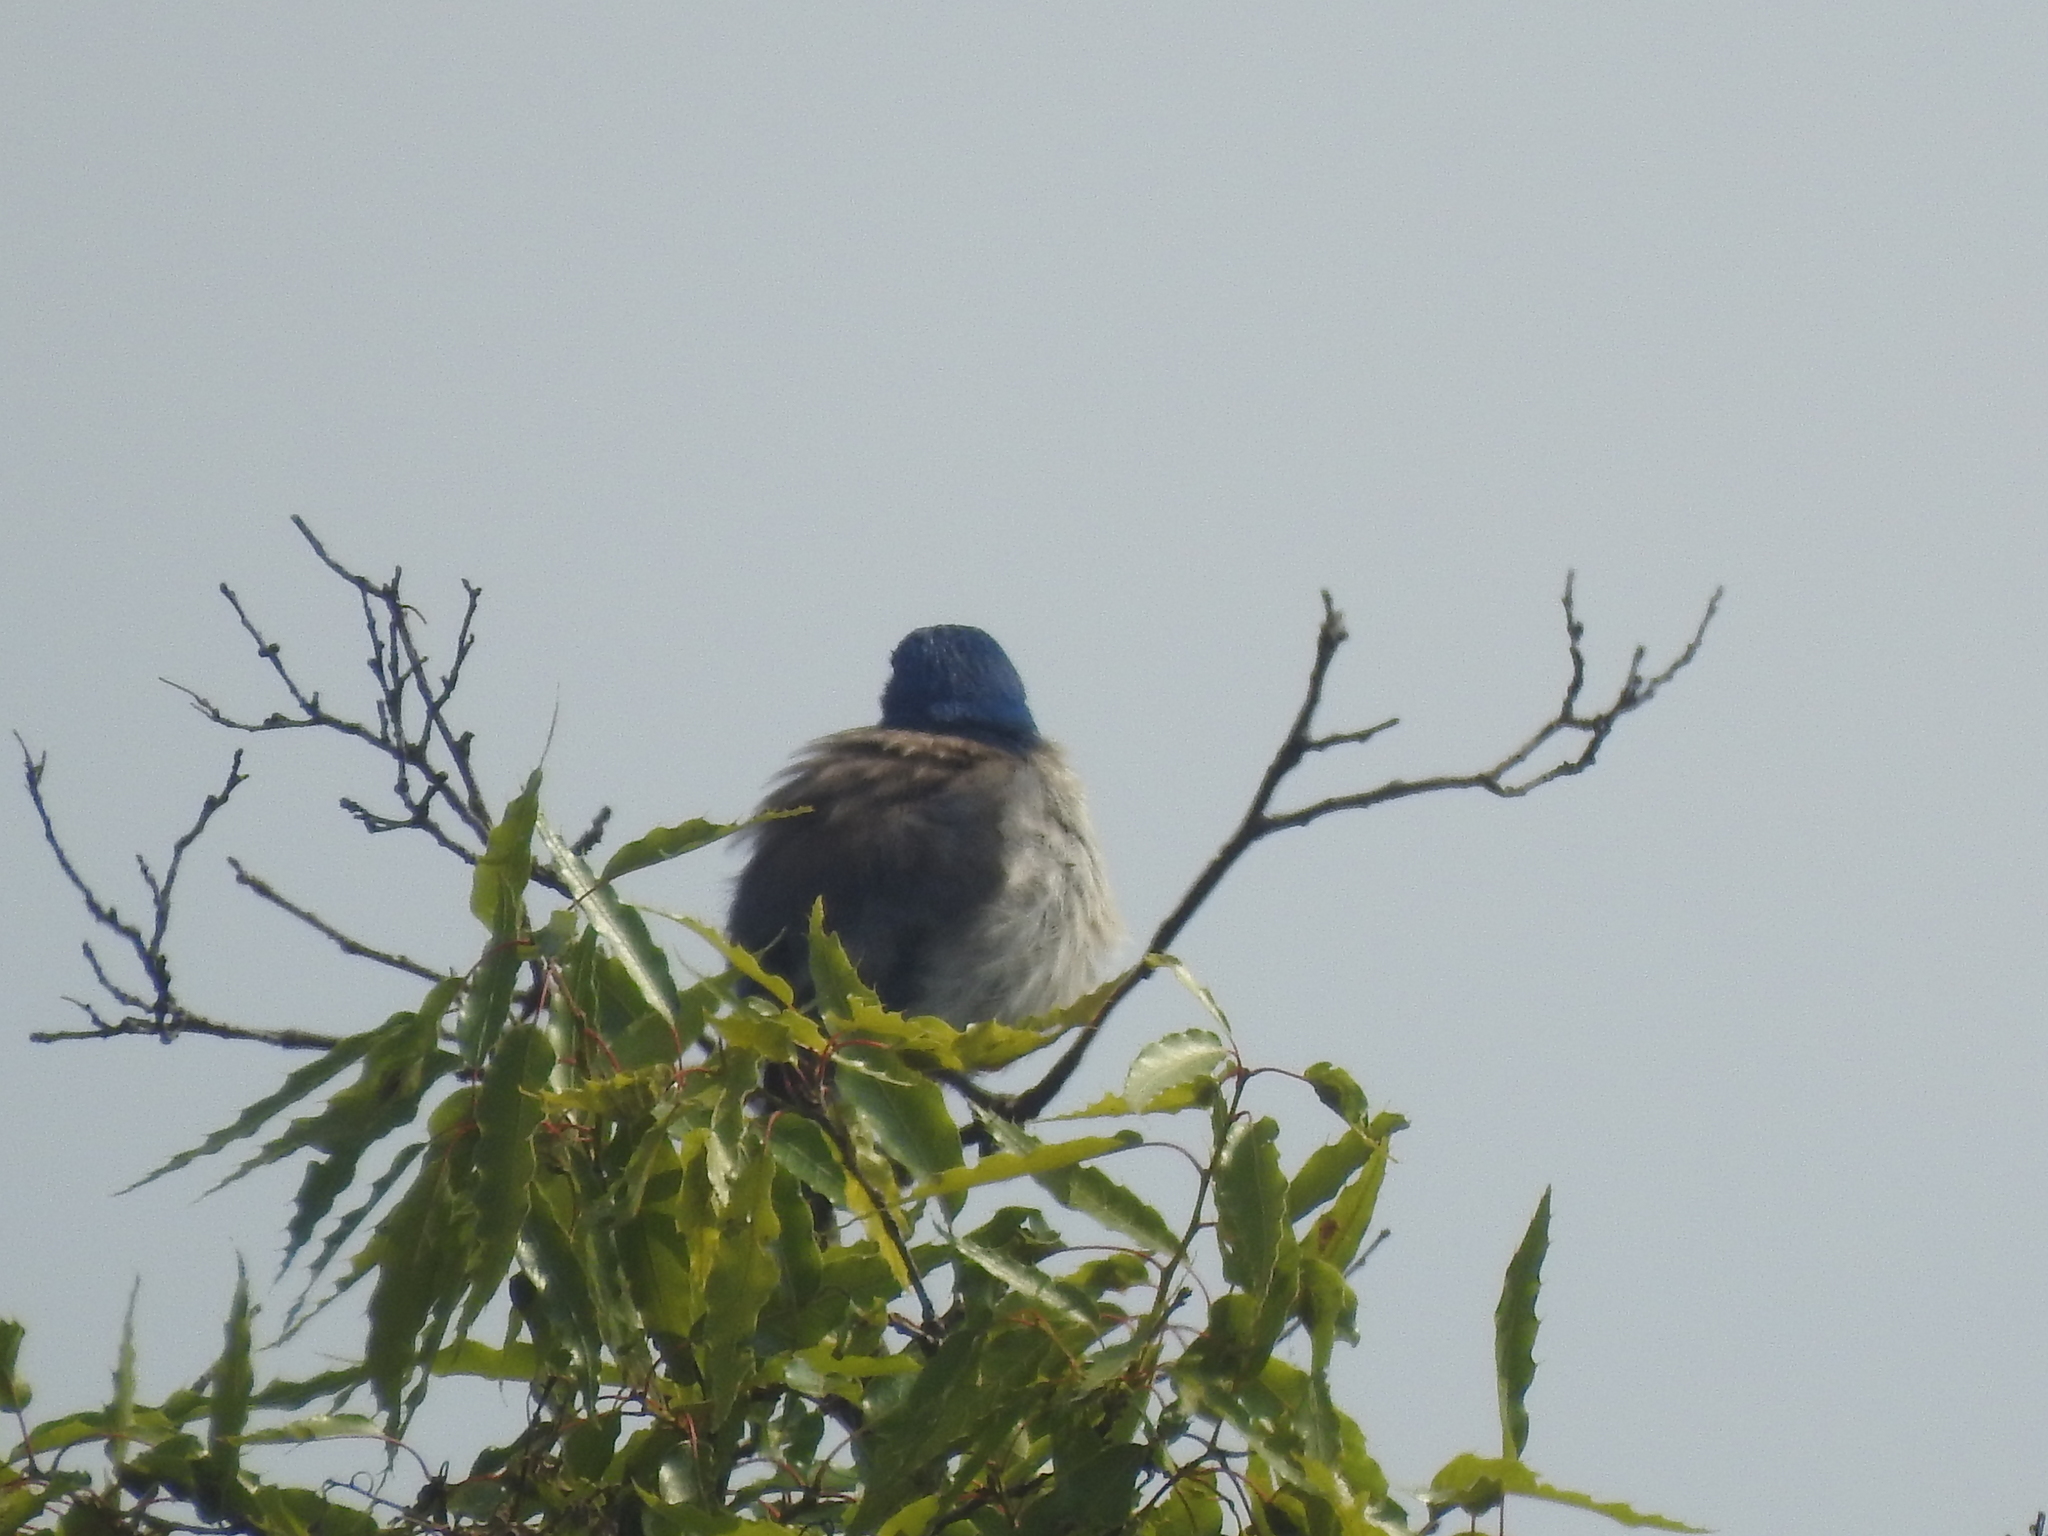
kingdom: Animalia
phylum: Chordata
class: Aves
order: Passeriformes
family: Corvidae
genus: Aphelocoma
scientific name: Aphelocoma woodhouseii
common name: Woodhouse's scrub-jay
